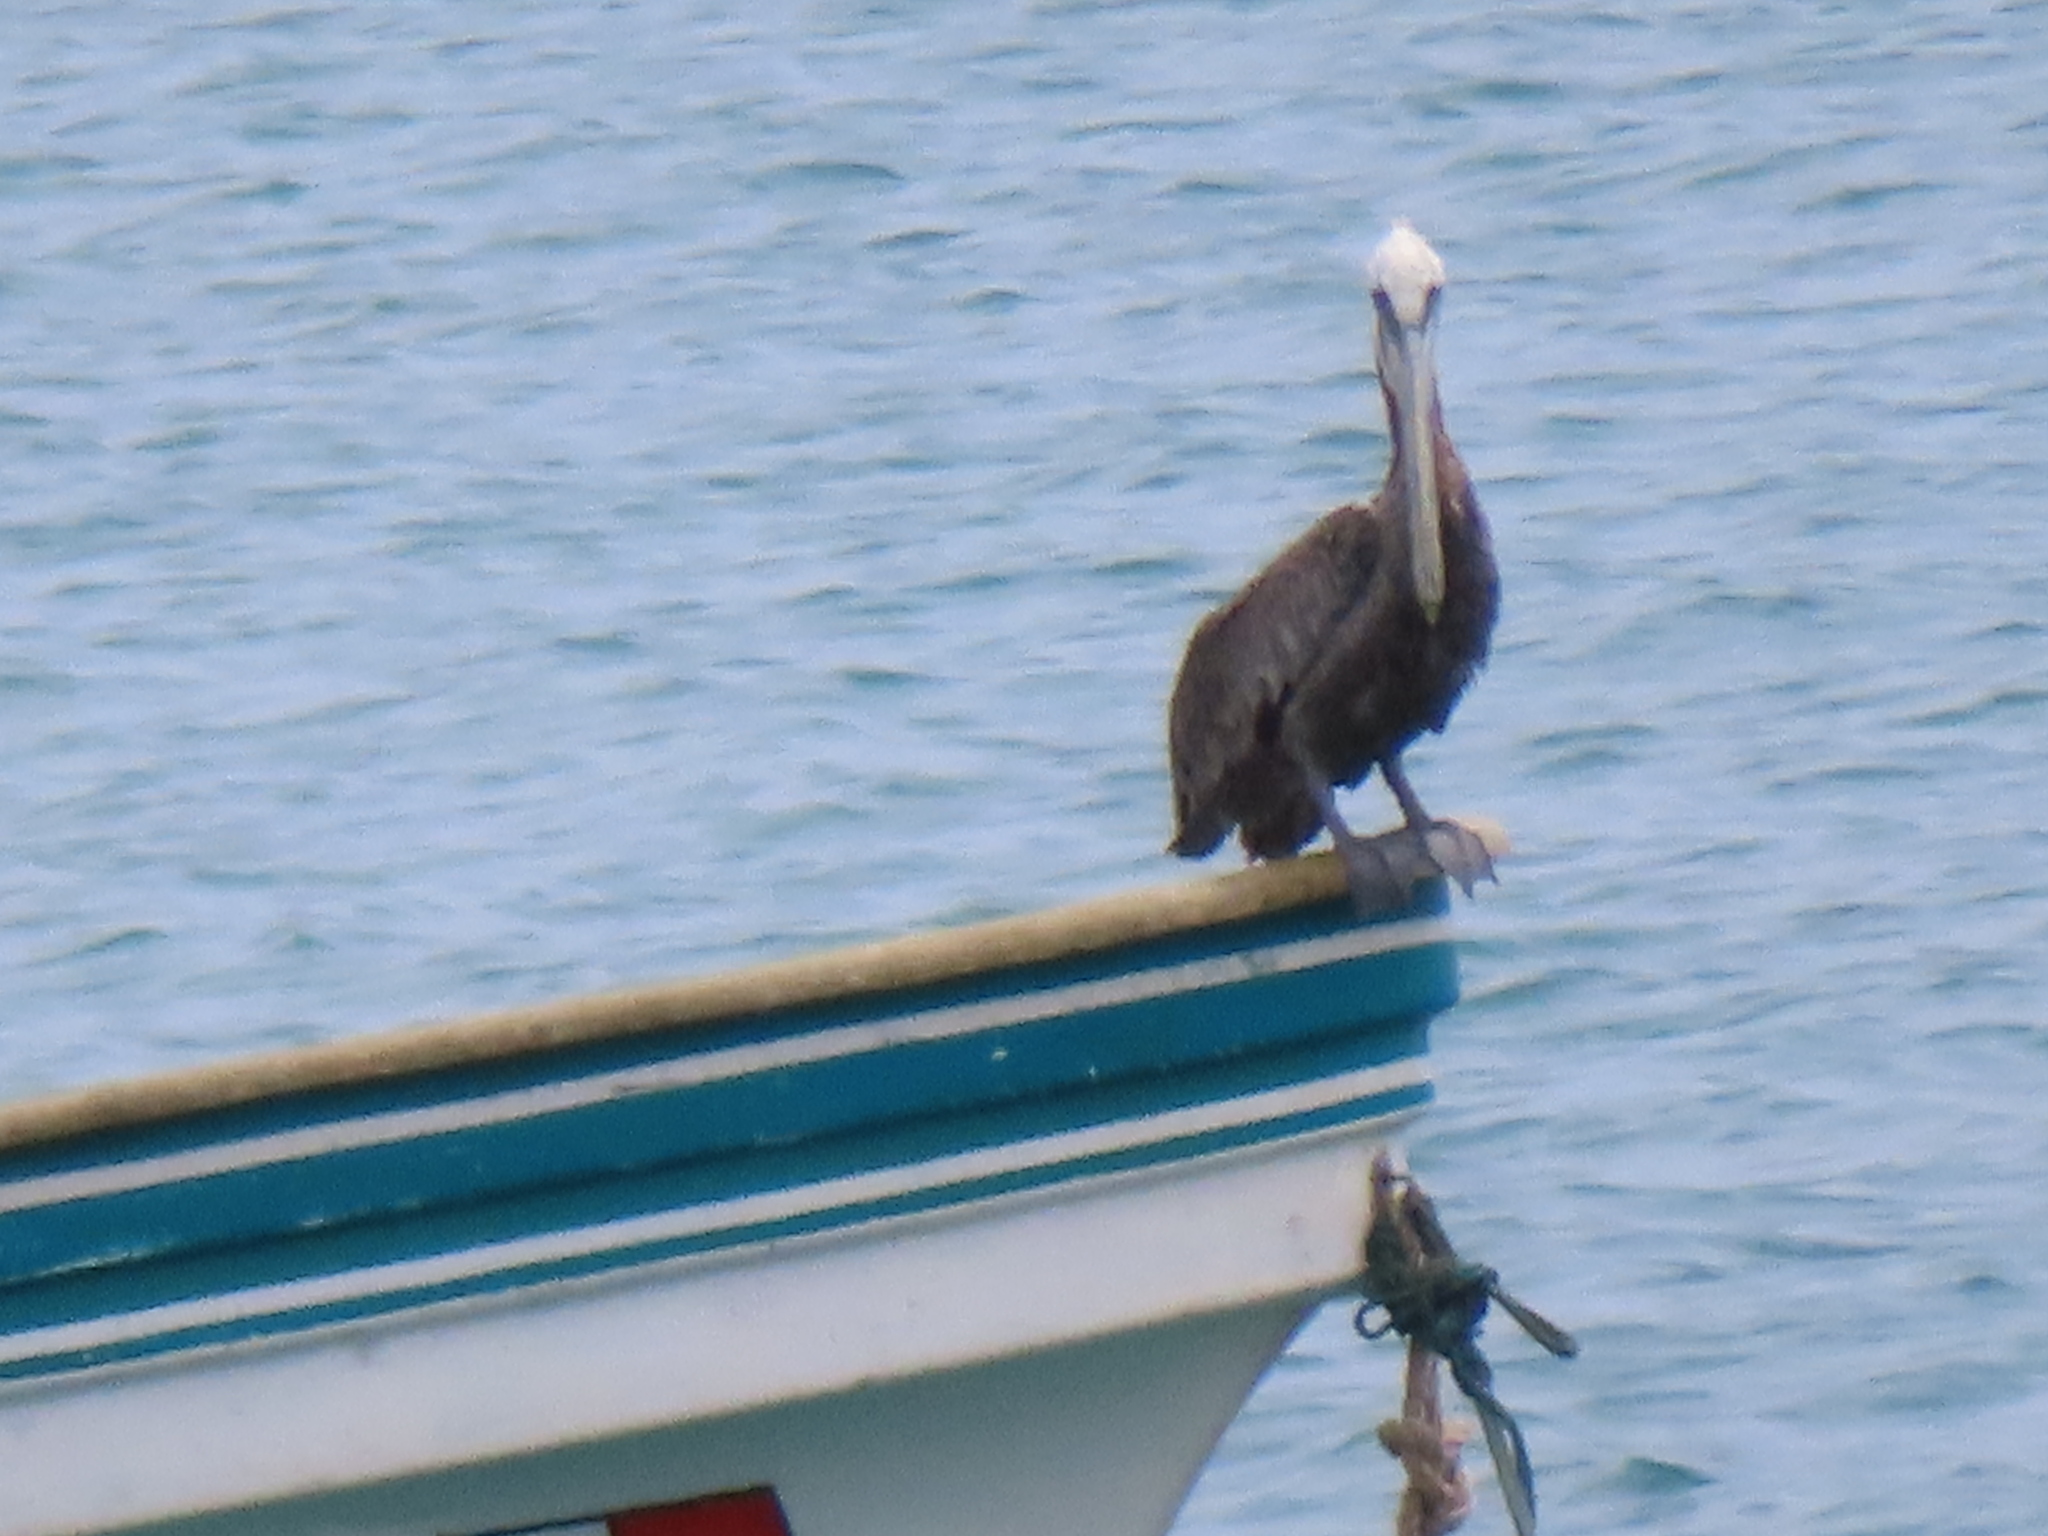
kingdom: Animalia
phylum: Chordata
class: Aves
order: Pelecaniformes
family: Pelecanidae
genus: Pelecanus
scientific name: Pelecanus occidentalis
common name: Brown pelican
